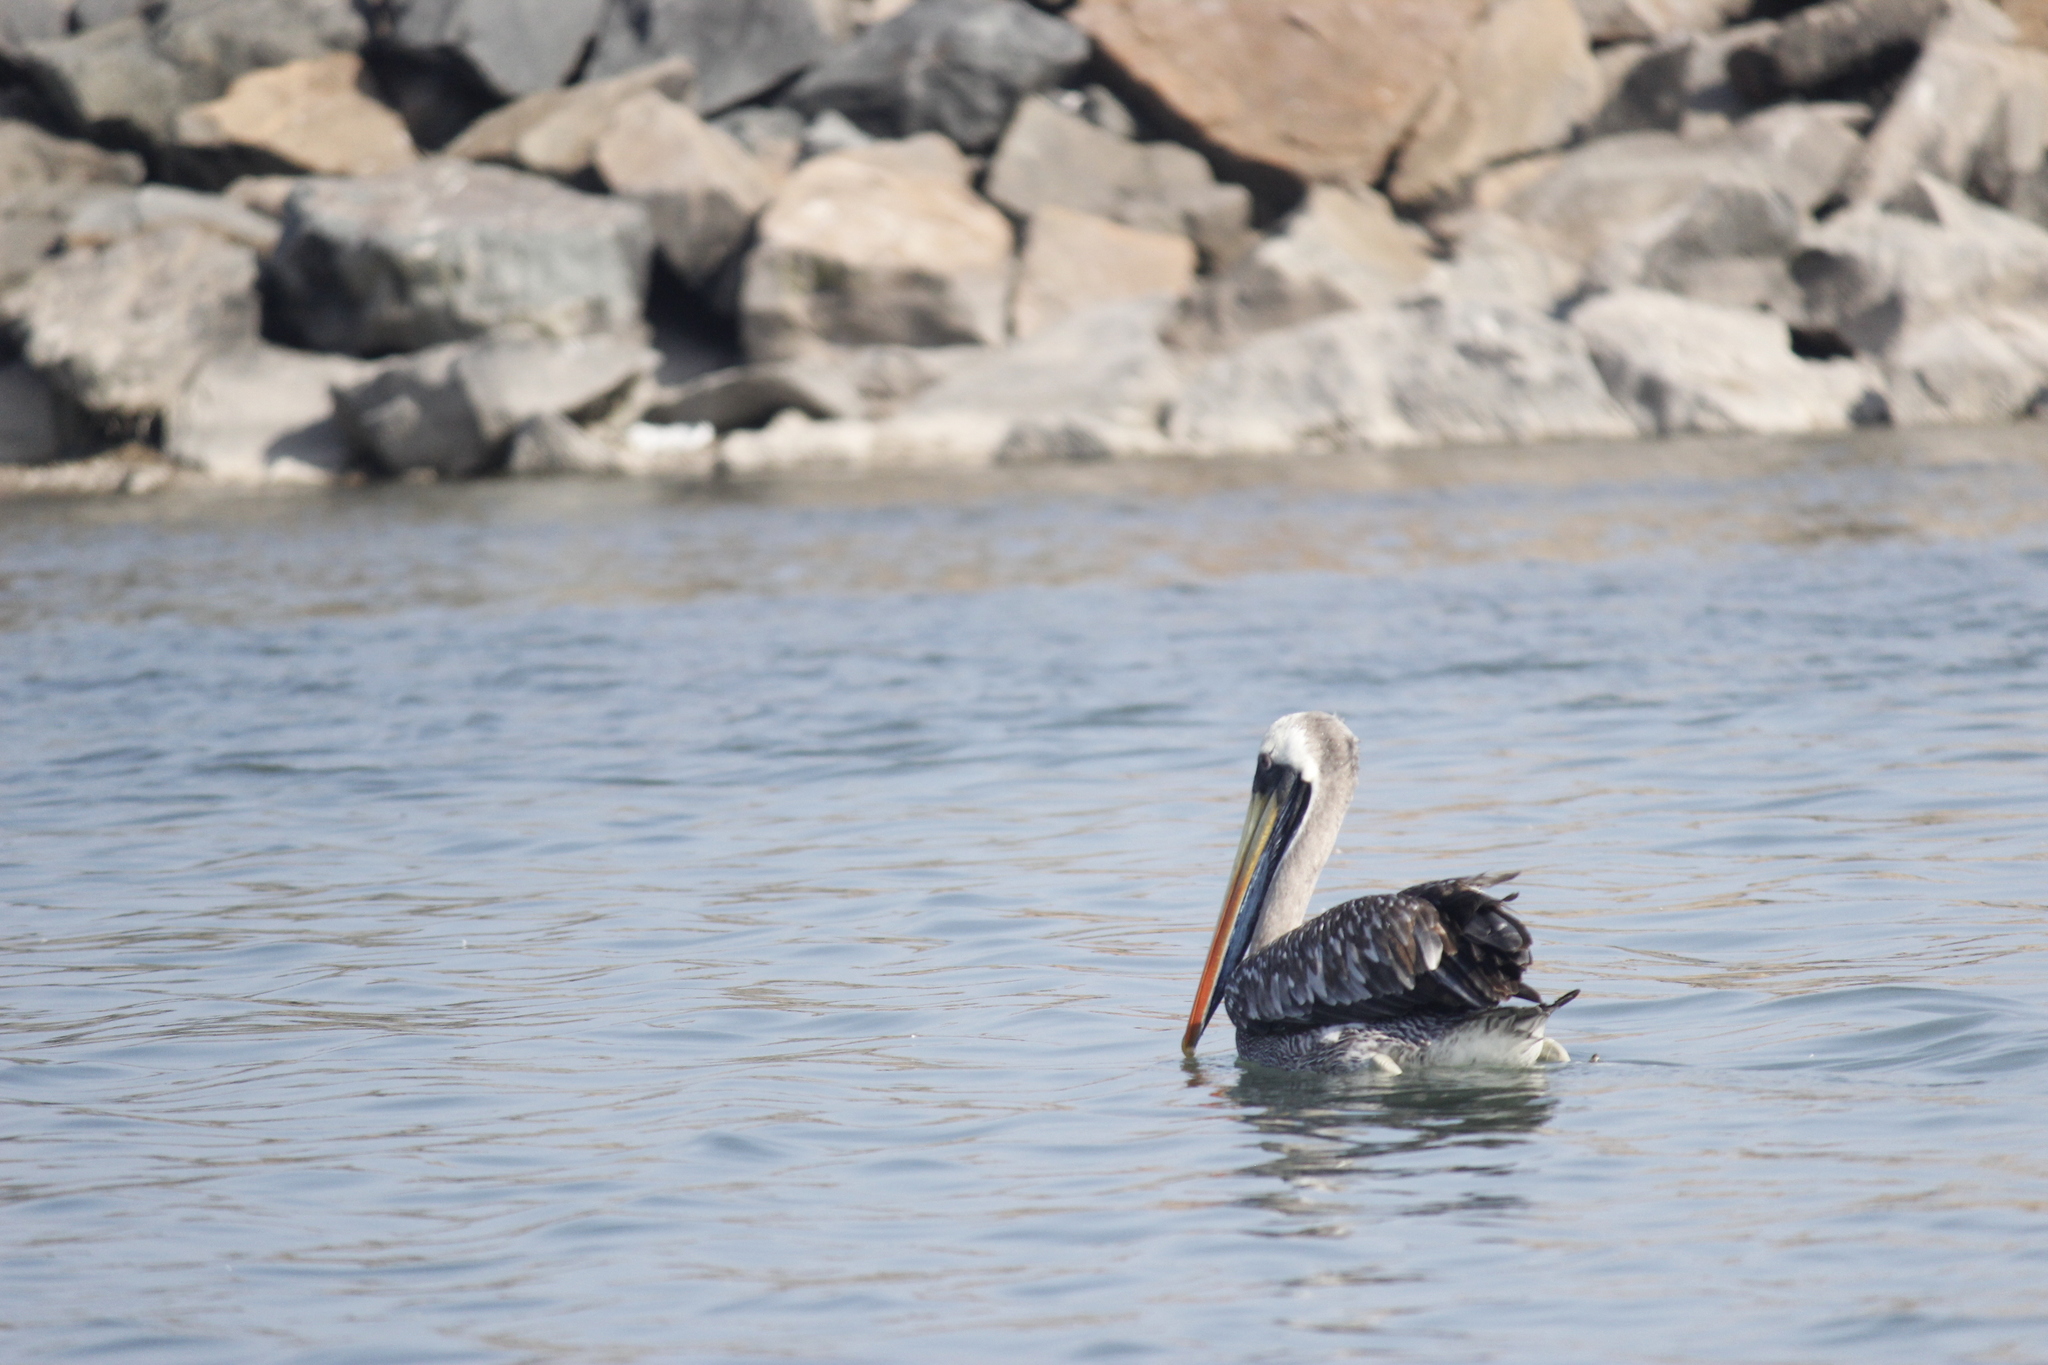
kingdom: Animalia
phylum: Chordata
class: Aves
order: Pelecaniformes
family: Pelecanidae
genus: Pelecanus
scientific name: Pelecanus thagus
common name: Peruvian pelican
